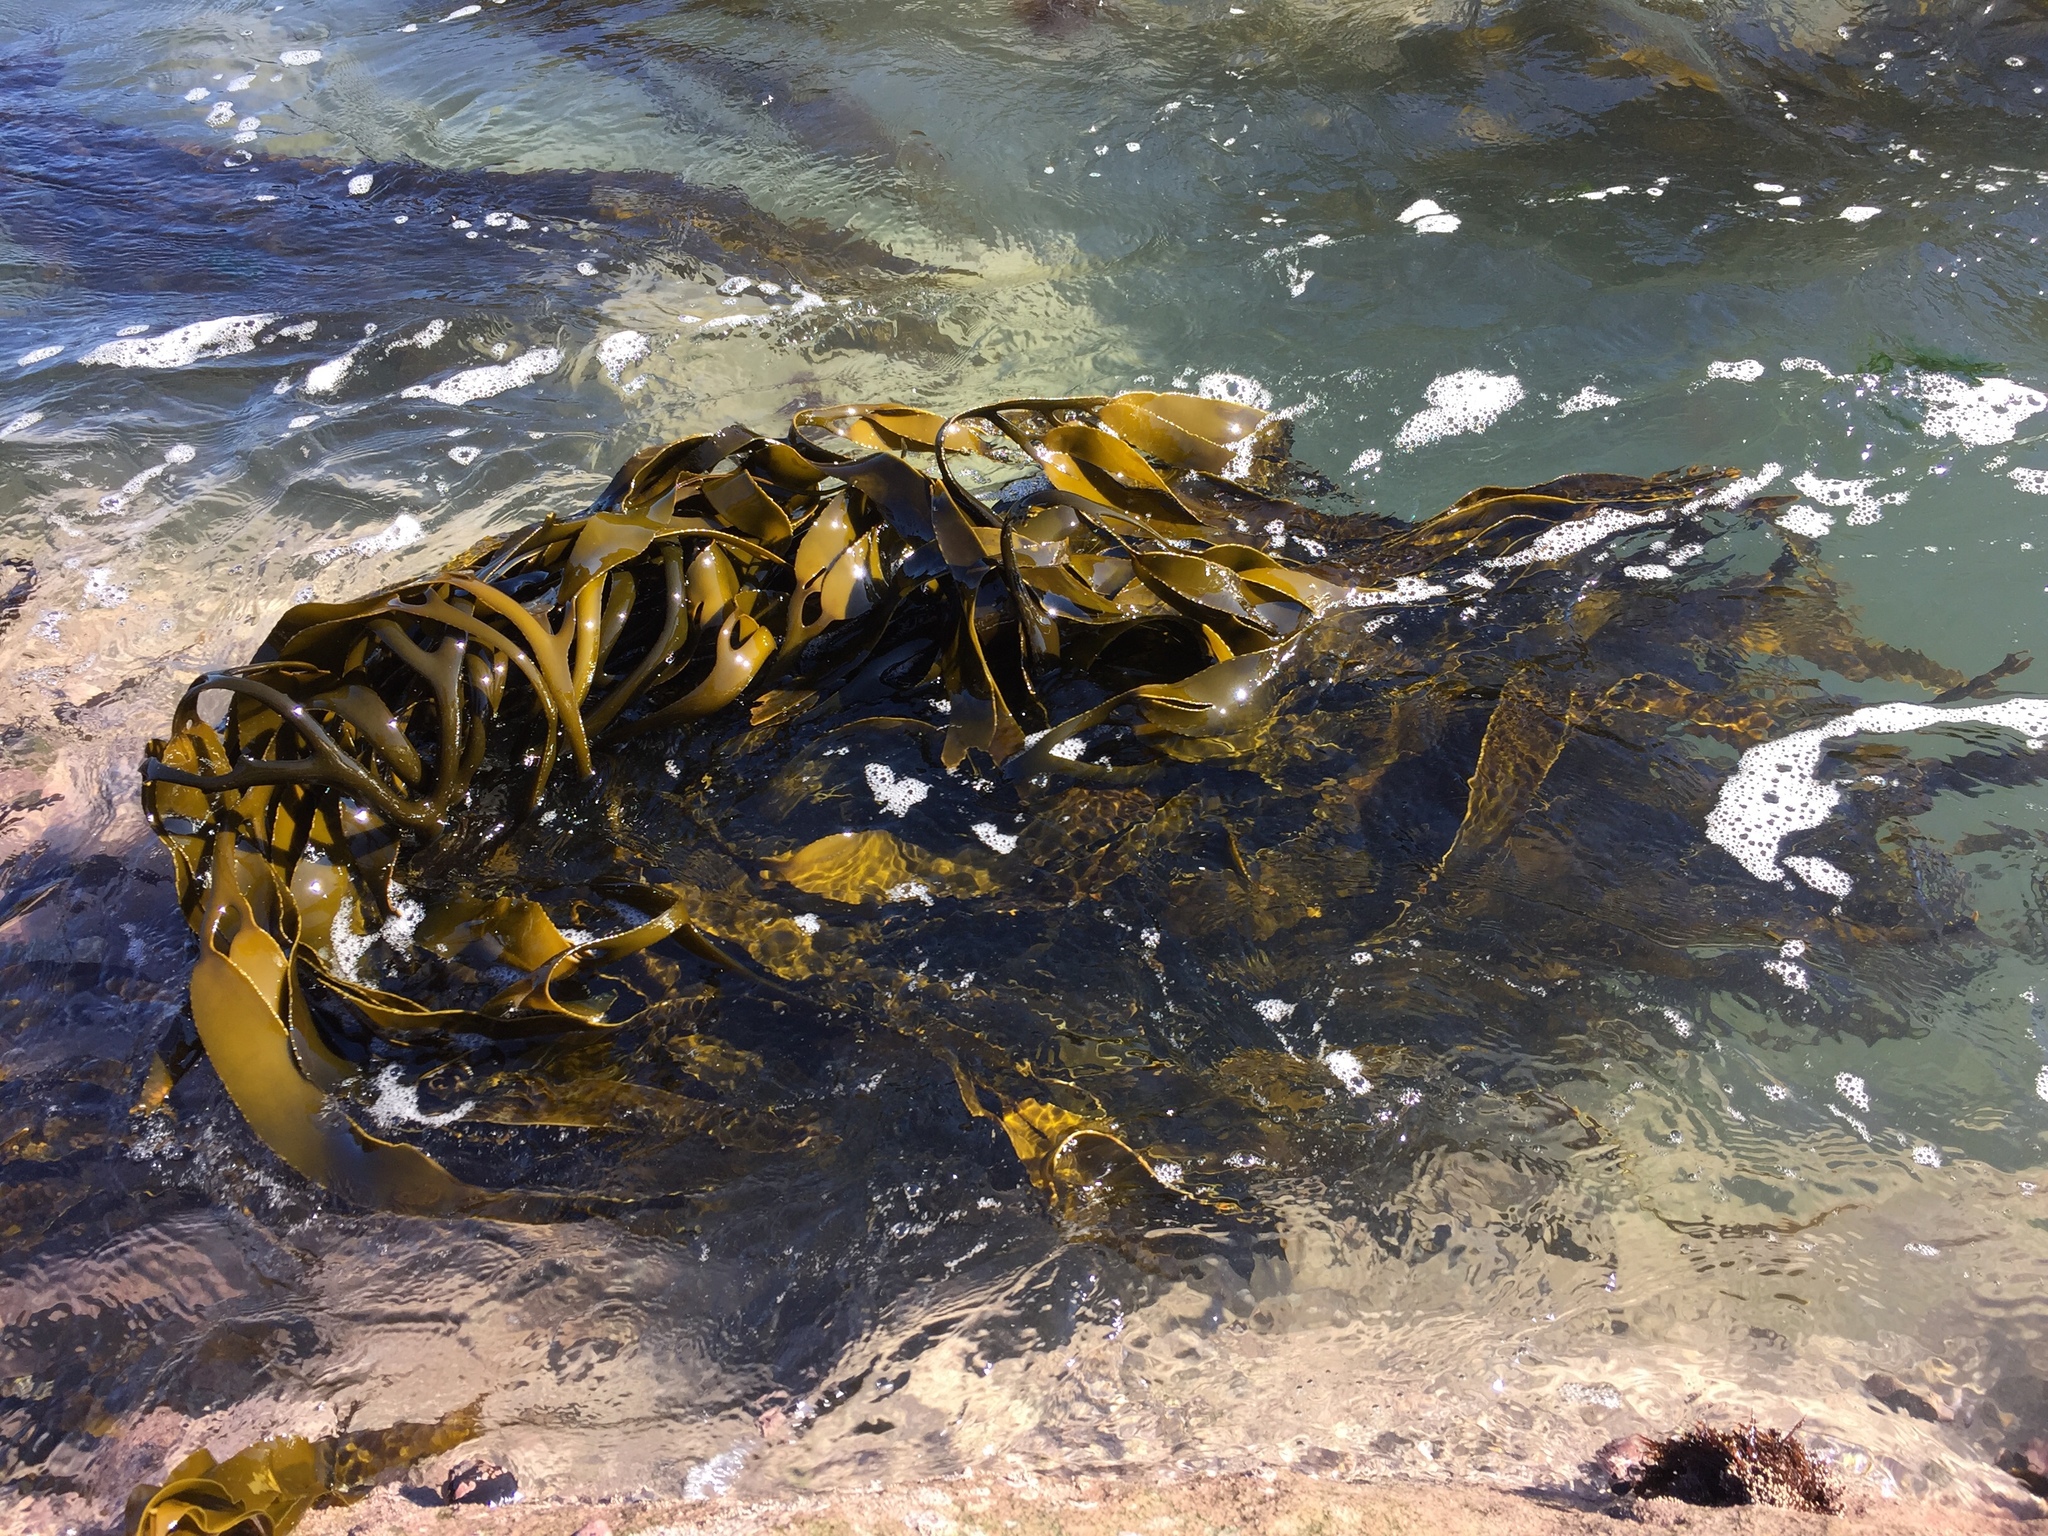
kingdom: Chromista
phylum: Ochrophyta
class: Phaeophyceae
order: Laminariales
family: Lessoniaceae
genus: Lessonia
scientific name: Lessonia spicata
